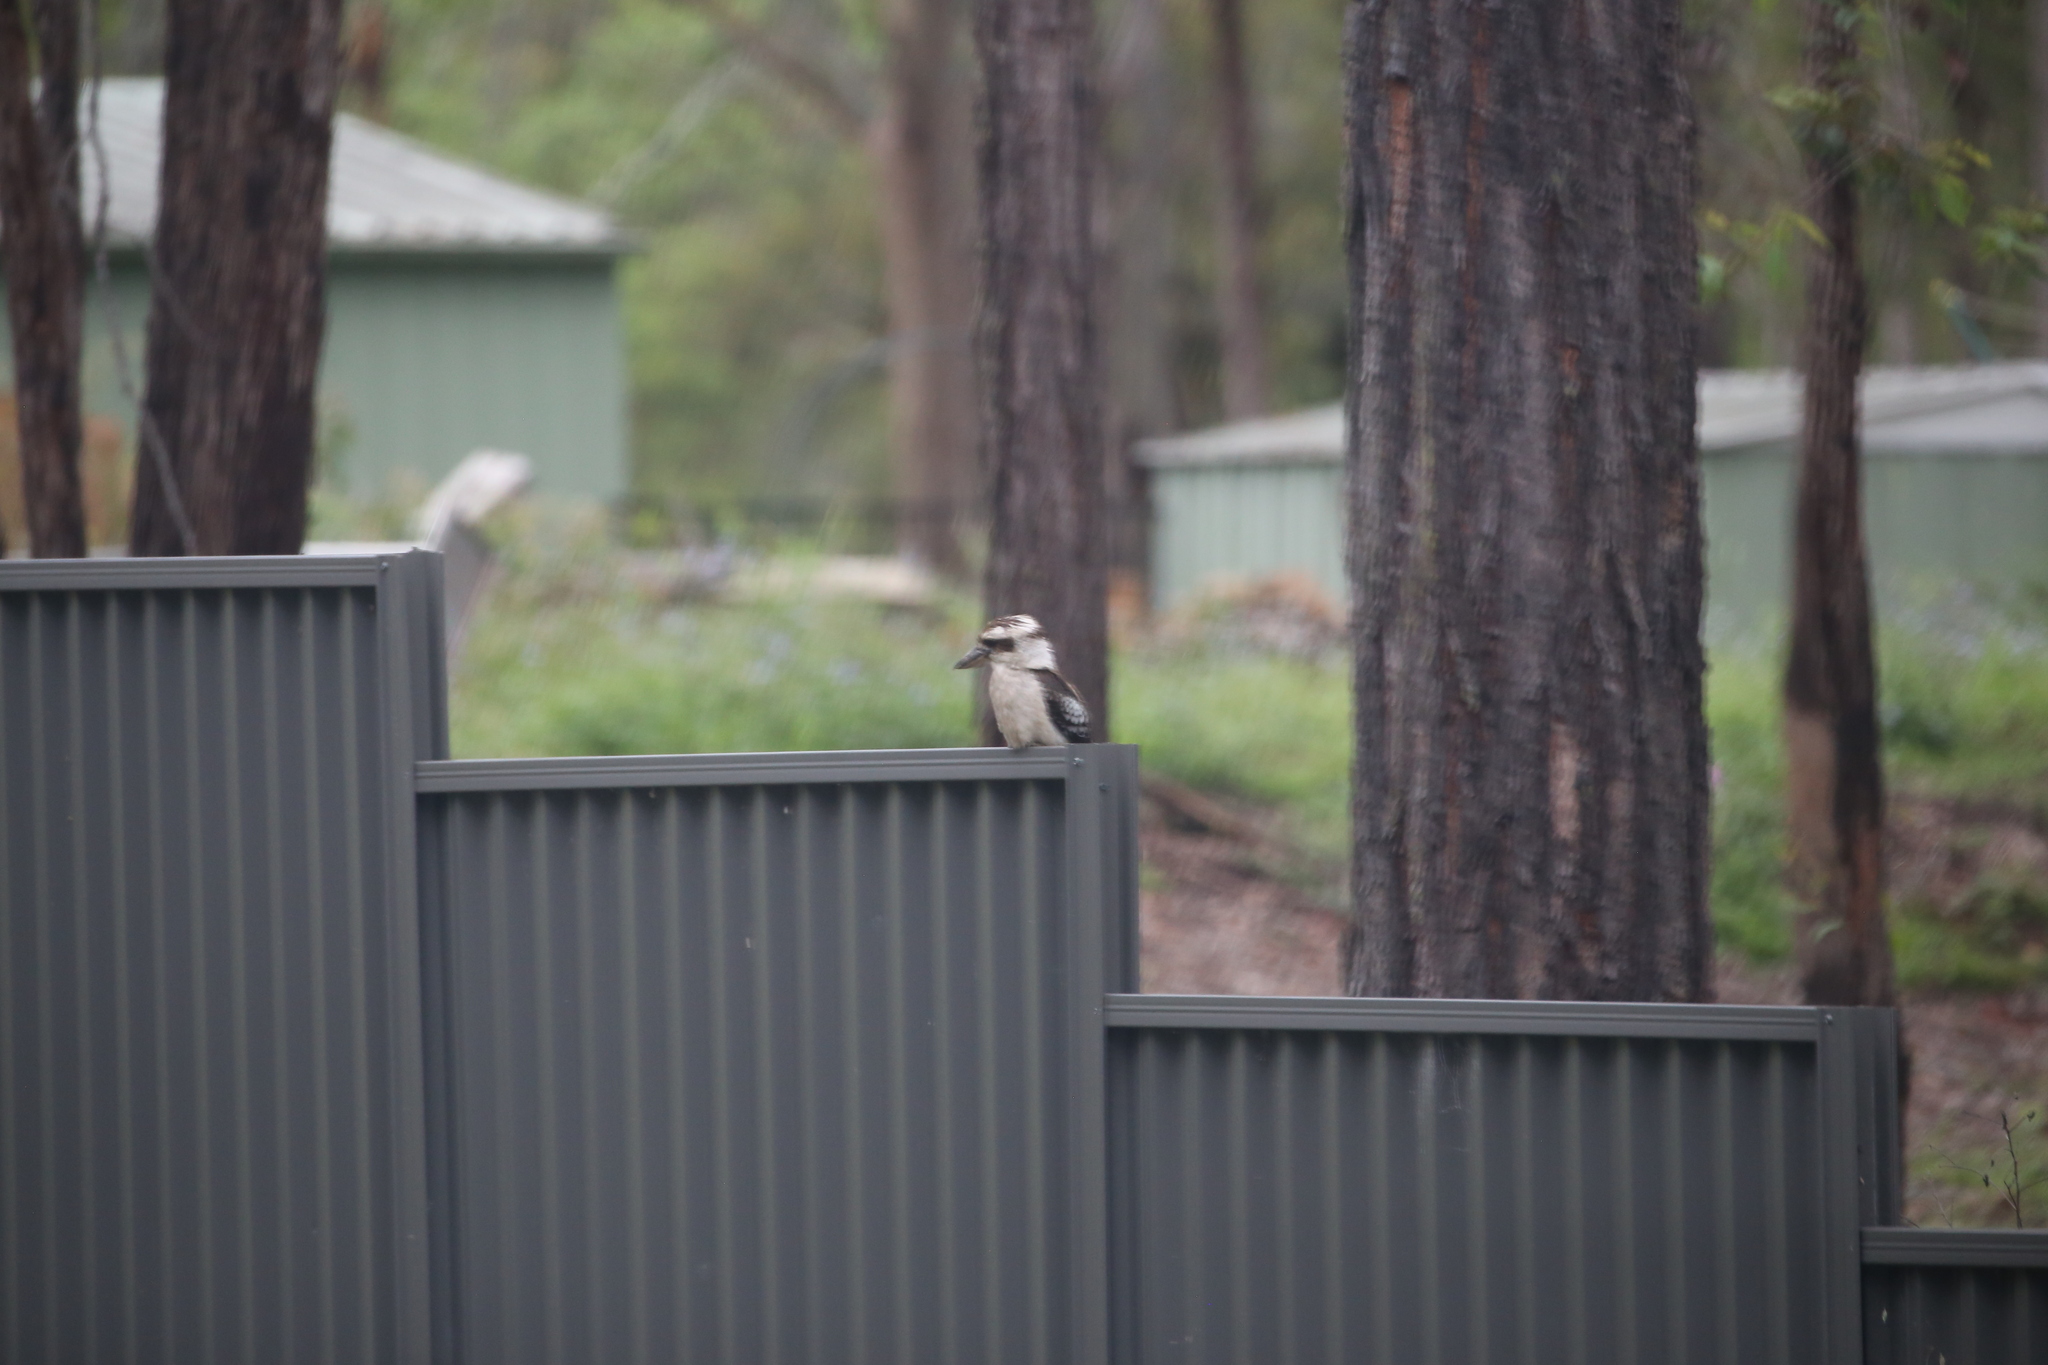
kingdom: Animalia
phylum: Chordata
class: Aves
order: Coraciiformes
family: Alcedinidae
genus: Dacelo
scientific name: Dacelo novaeguineae
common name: Laughing kookaburra
